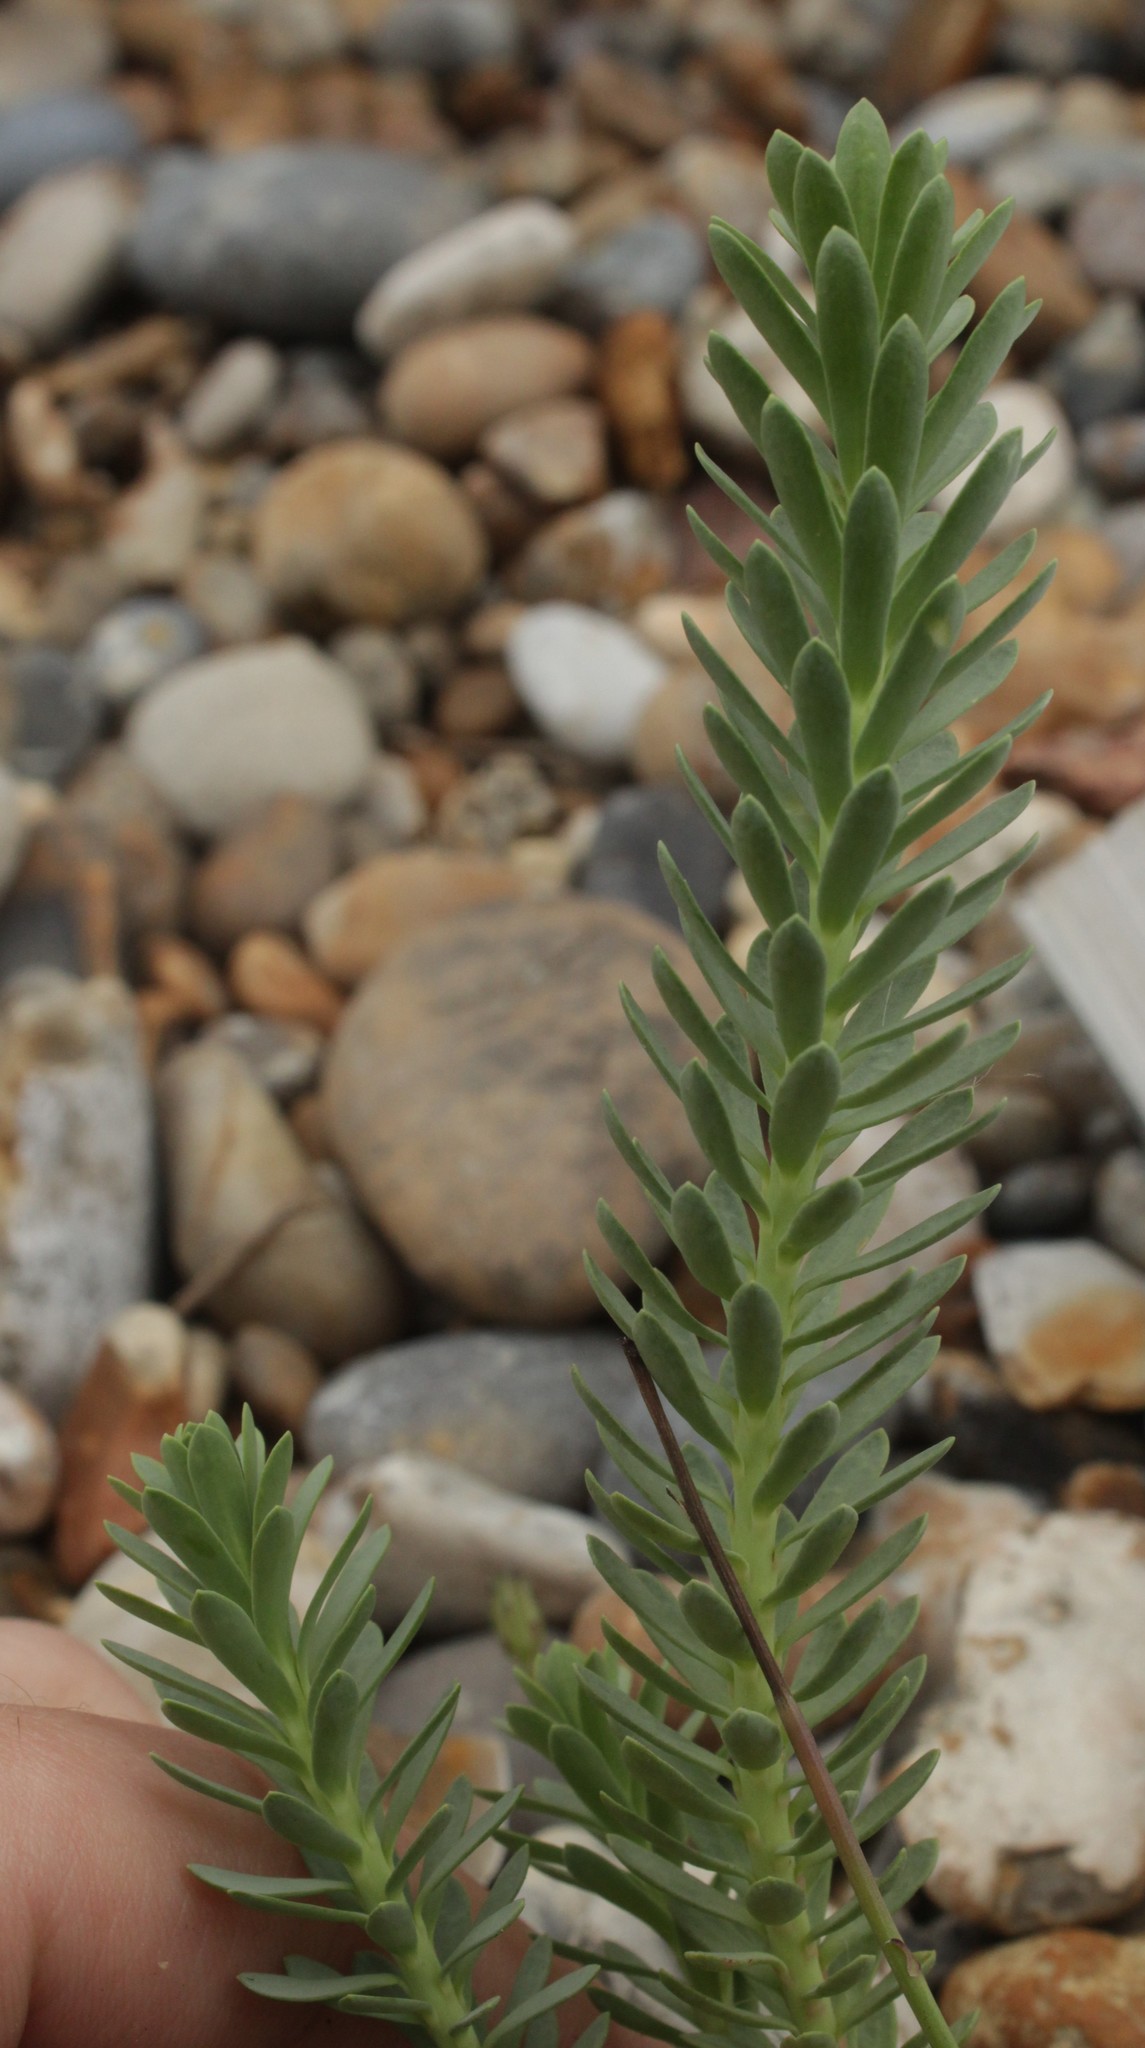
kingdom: Plantae
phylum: Tracheophyta
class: Magnoliopsida
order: Malpighiales
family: Euphorbiaceae
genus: Euphorbia
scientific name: Euphorbia paralias
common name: Sea spurge
